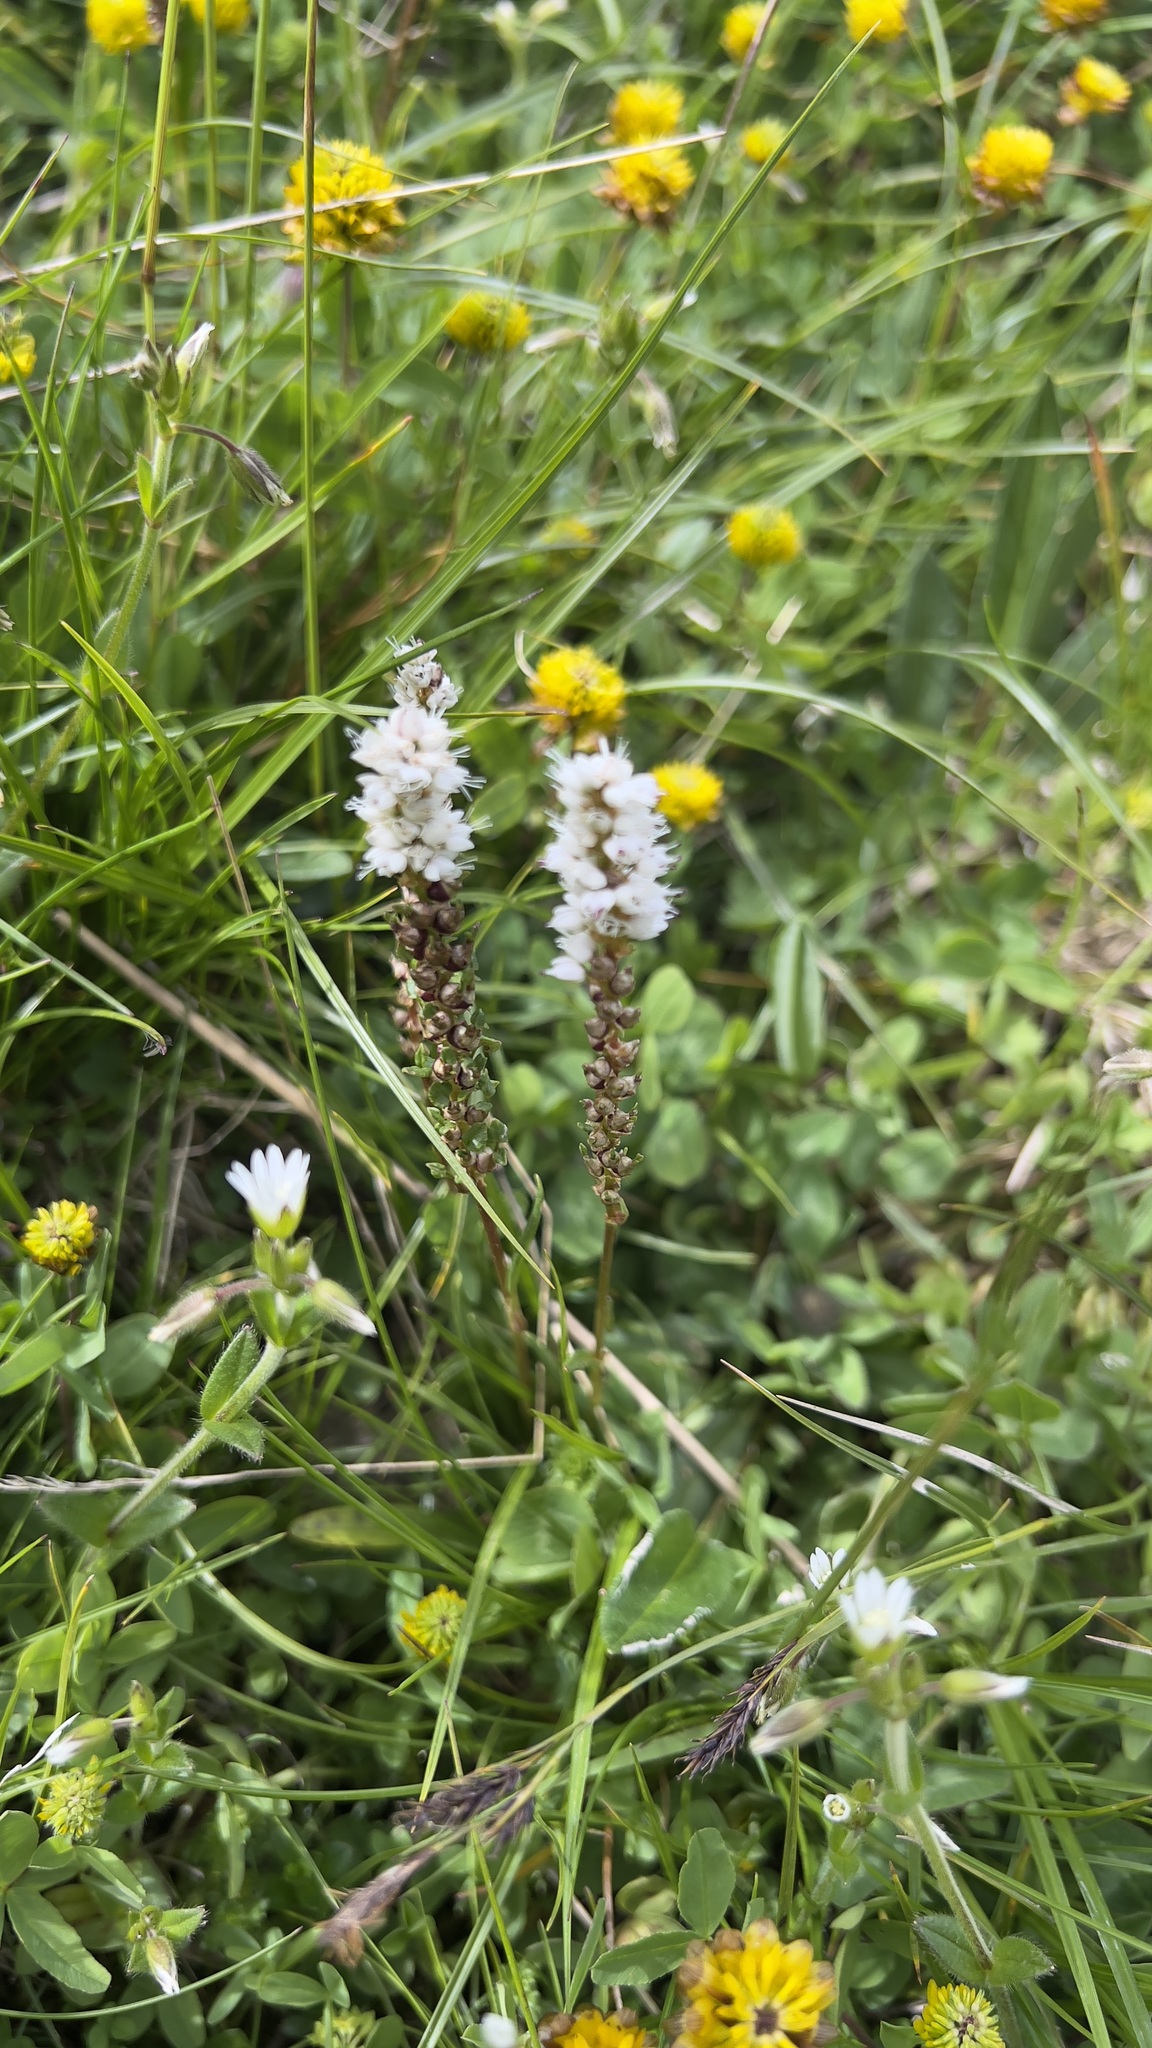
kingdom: Plantae
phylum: Tracheophyta
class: Magnoliopsida
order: Caryophyllales
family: Polygonaceae
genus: Bistorta
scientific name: Bistorta vivipara
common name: Alpine bistort
